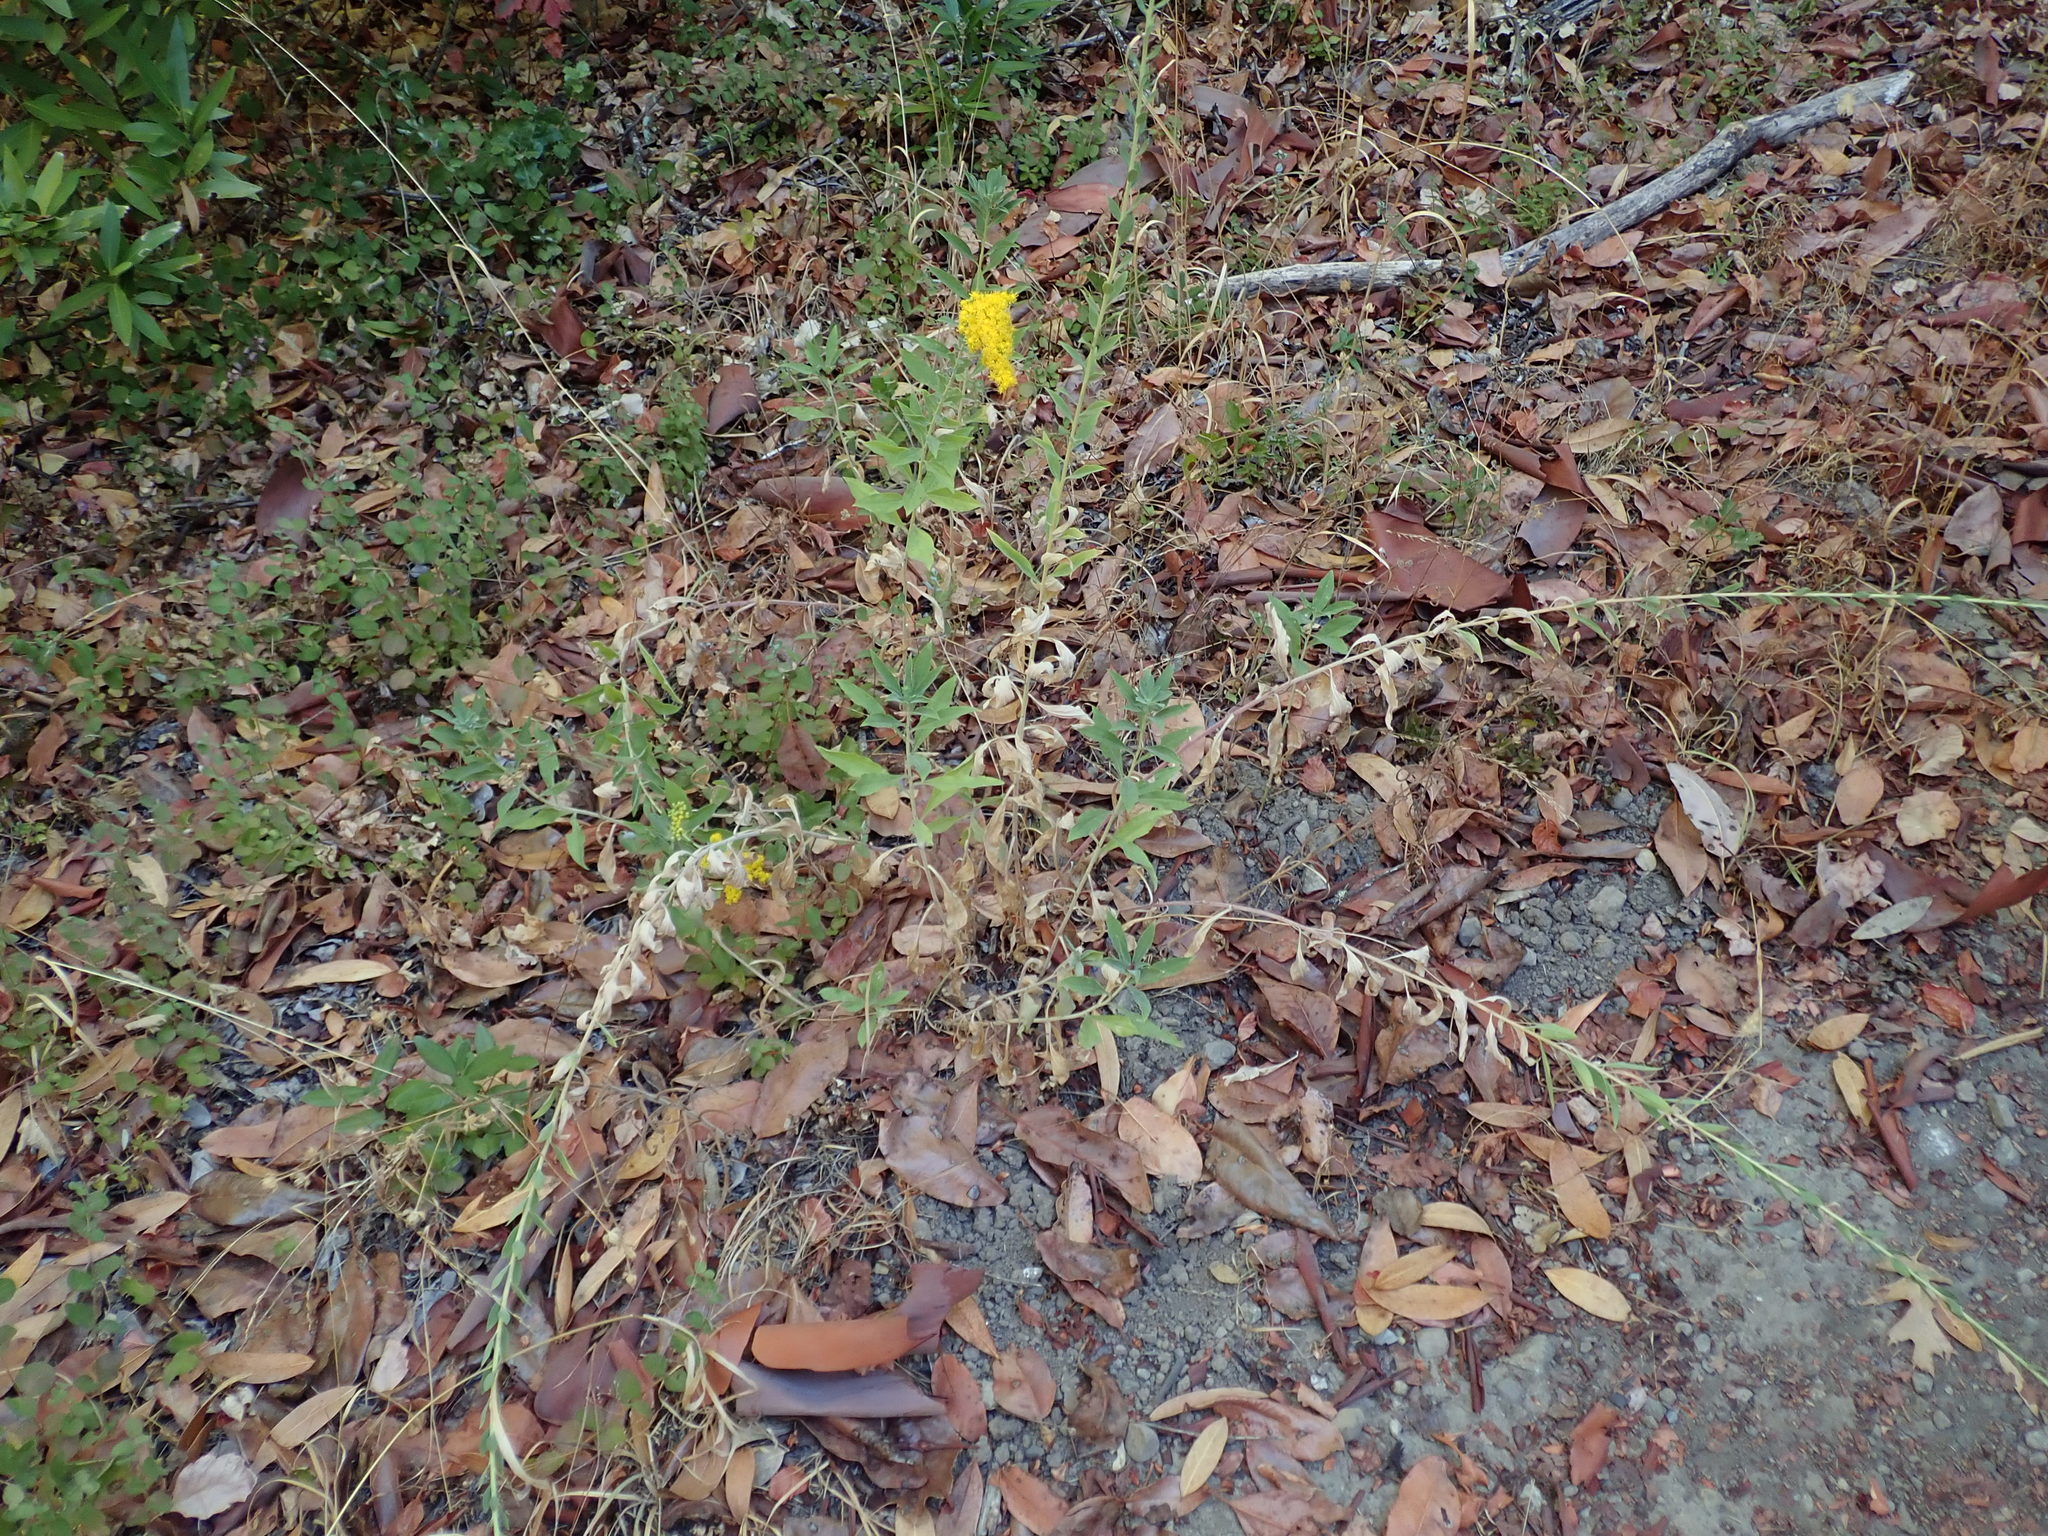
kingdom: Plantae
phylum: Tracheophyta
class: Magnoliopsida
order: Asterales
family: Asteraceae
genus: Solidago
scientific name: Solidago californica
